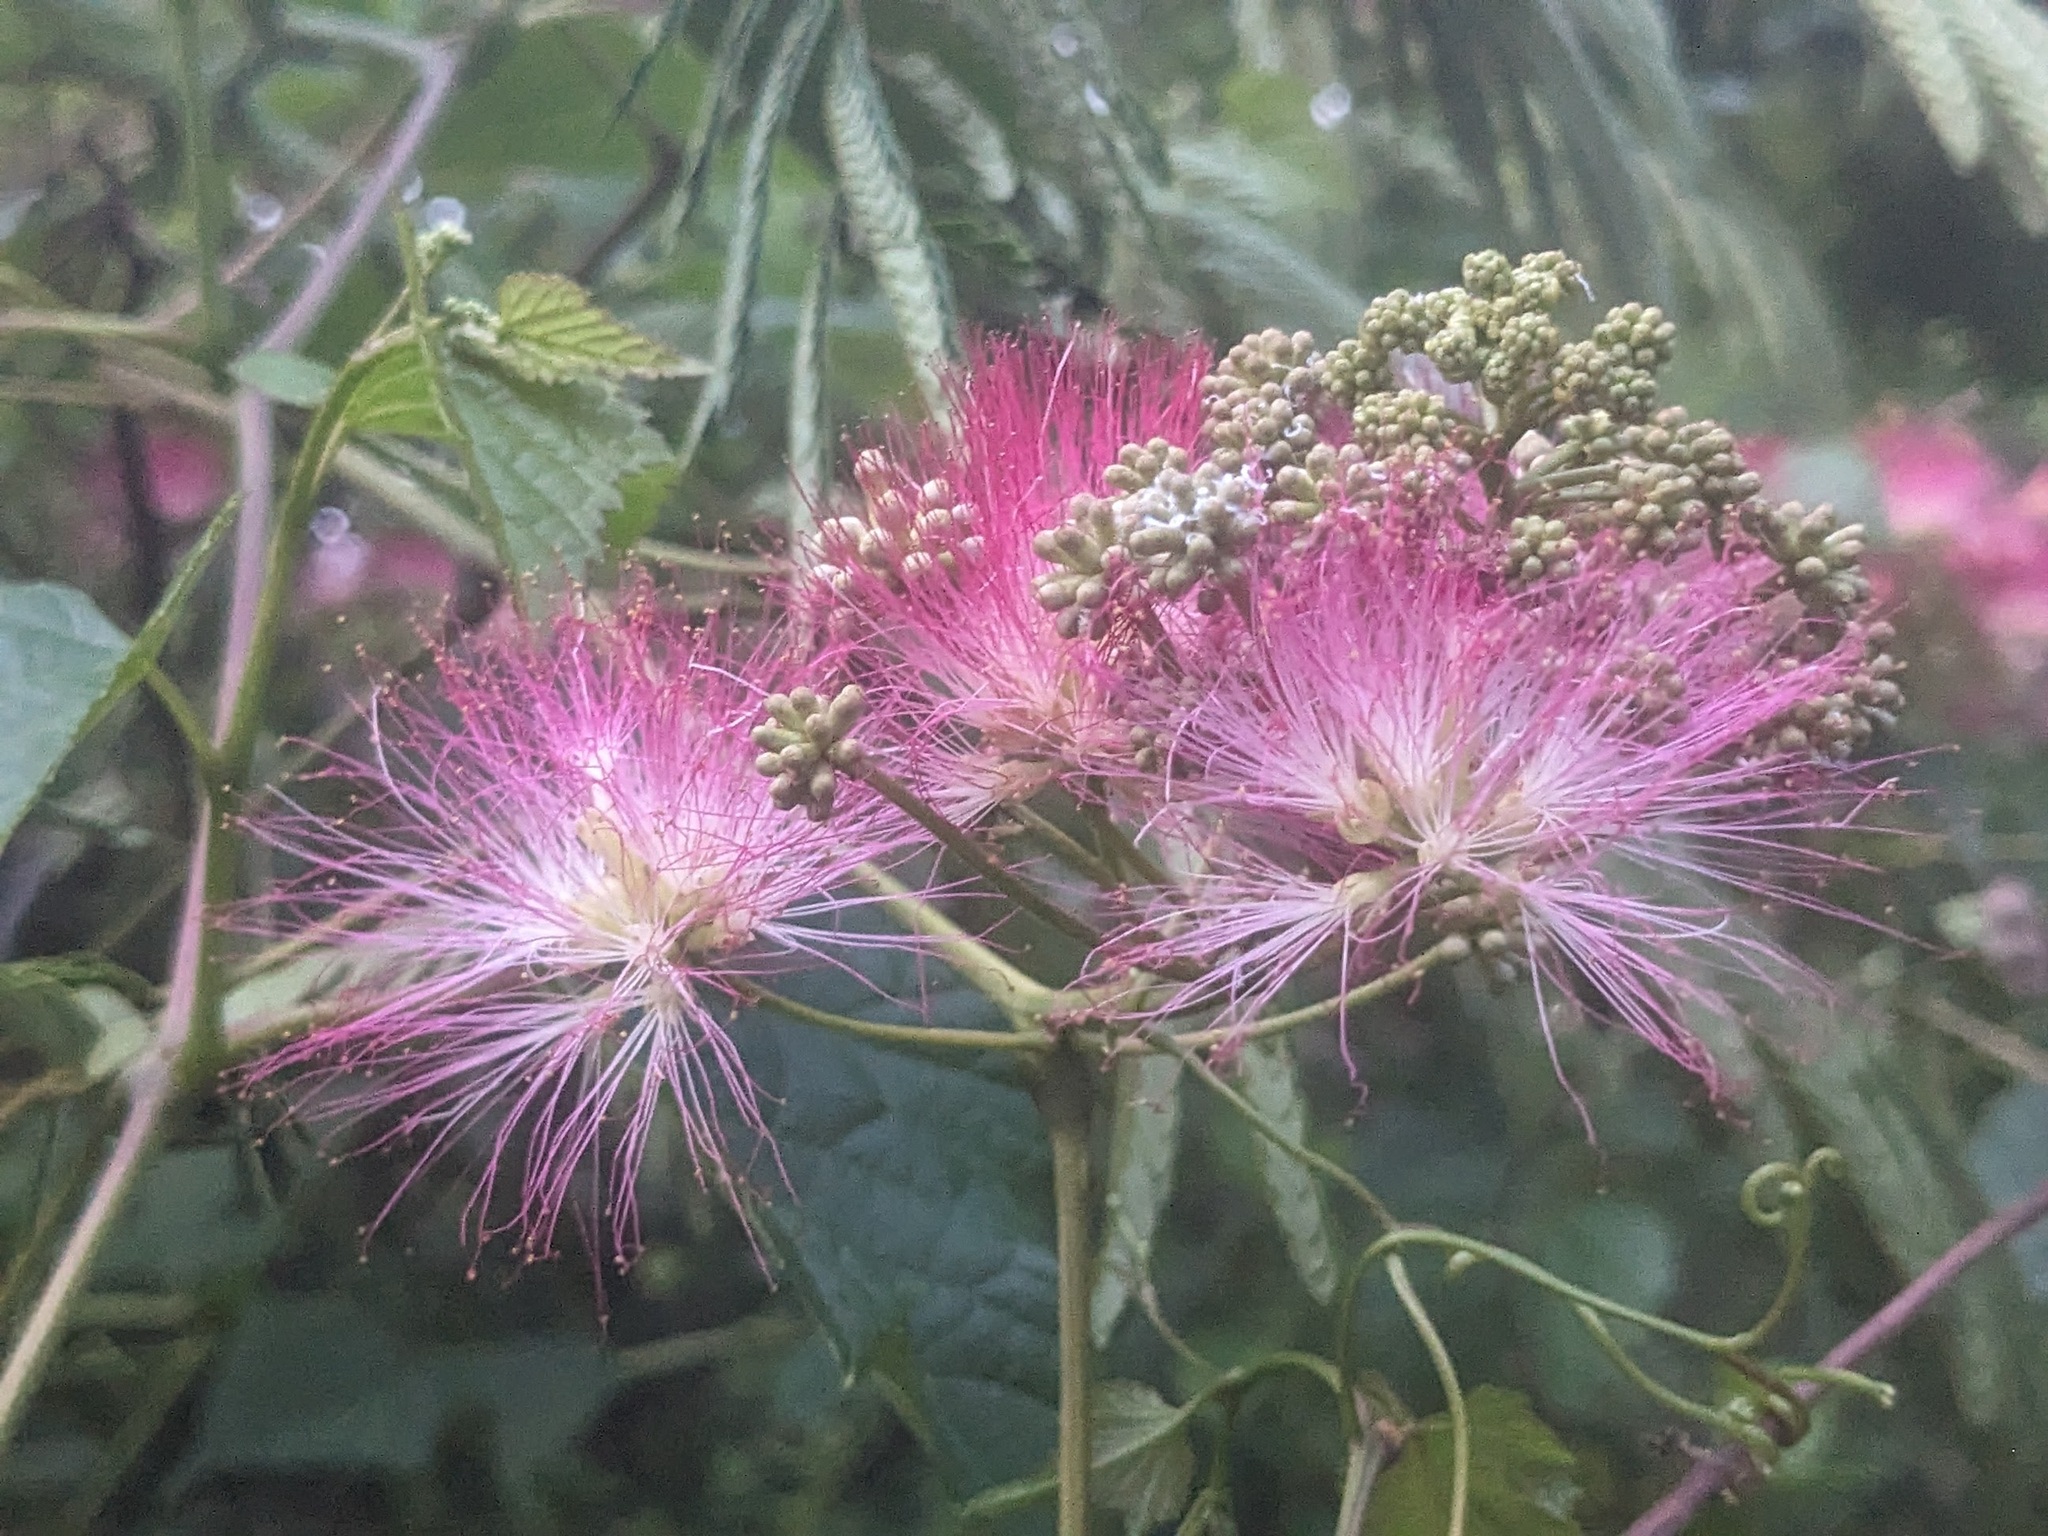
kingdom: Plantae
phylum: Tracheophyta
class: Magnoliopsida
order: Fabales
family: Fabaceae
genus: Albizia
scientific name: Albizia julibrissin
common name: Silktree
